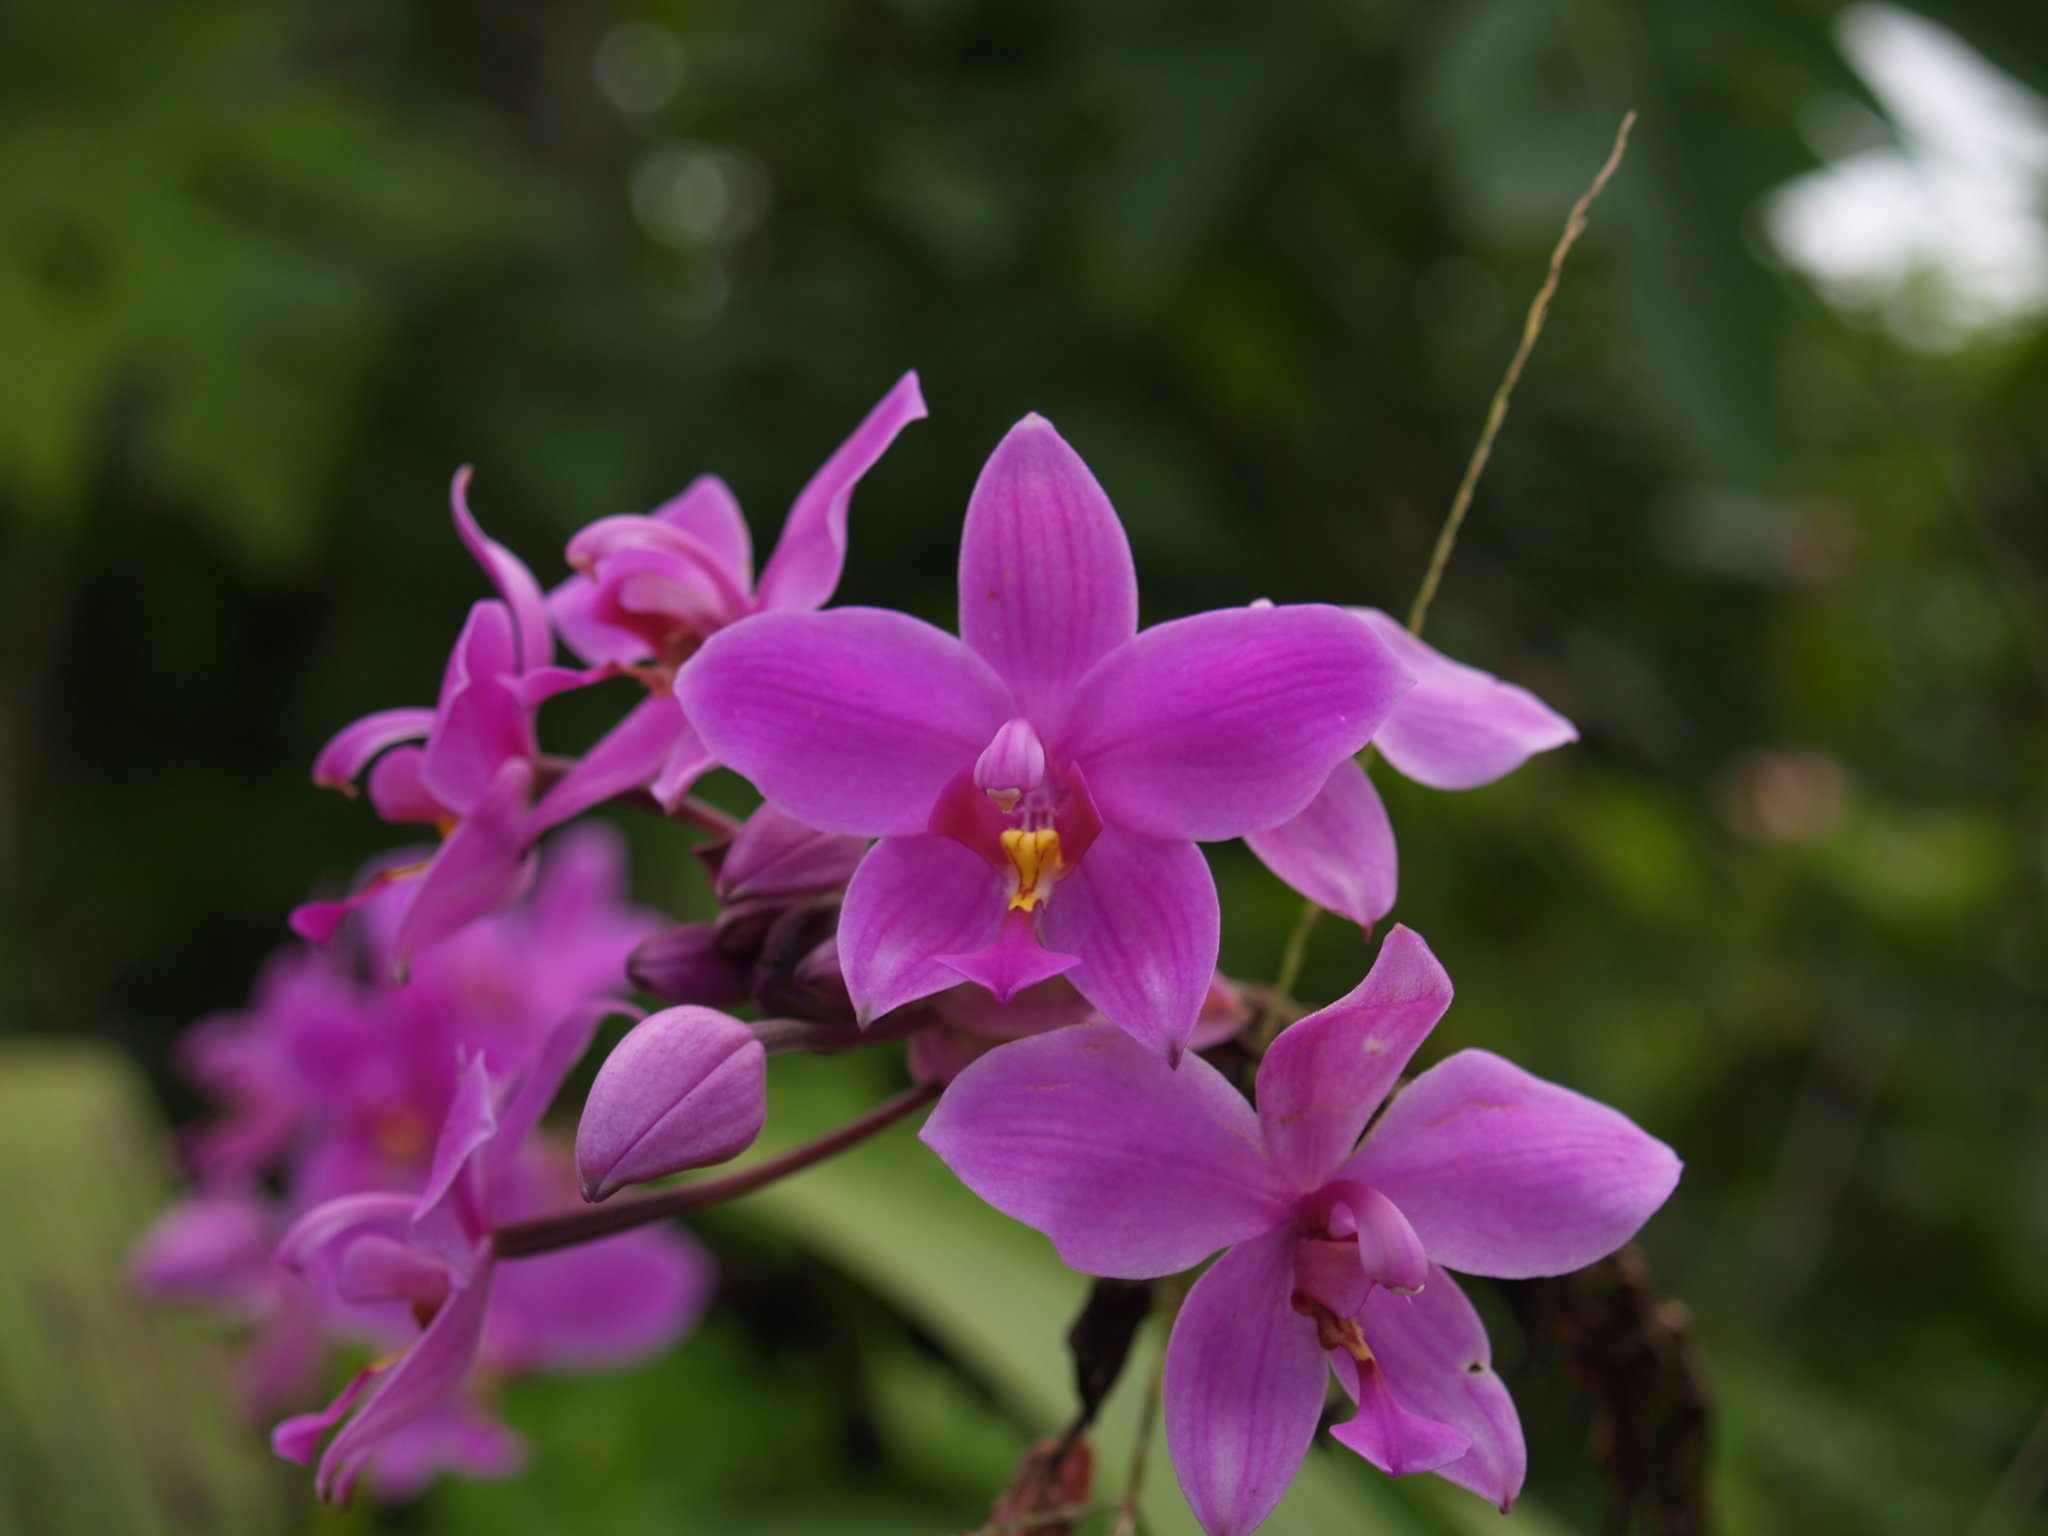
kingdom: Plantae
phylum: Tracheophyta
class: Liliopsida
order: Asparagales
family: Orchidaceae
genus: Spathoglottis
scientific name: Spathoglottis plicata
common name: Philippine ground orchid
